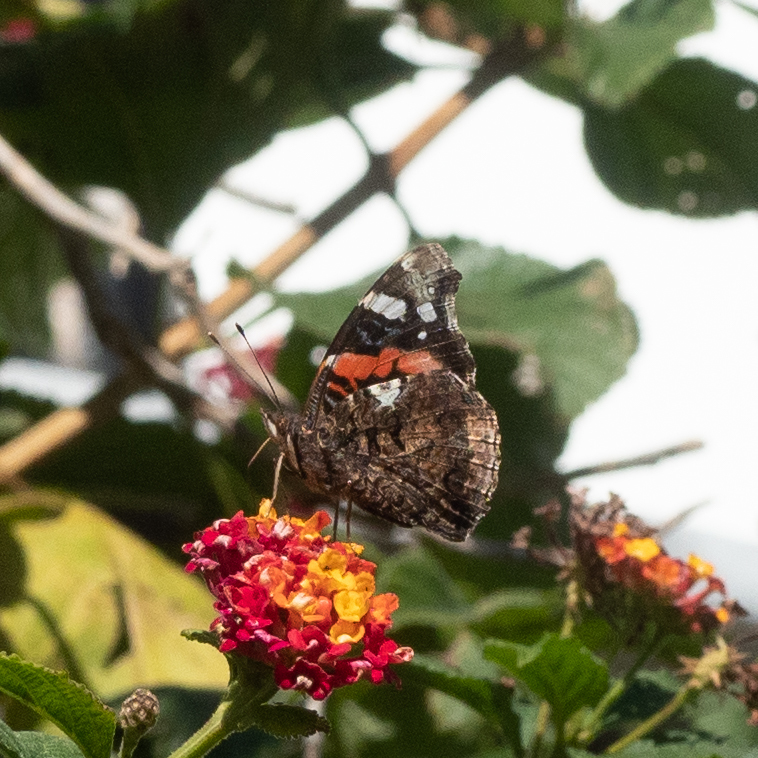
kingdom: Animalia
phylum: Arthropoda
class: Insecta
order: Lepidoptera
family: Nymphalidae
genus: Vanessa
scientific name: Vanessa atalanta
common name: Red admiral
